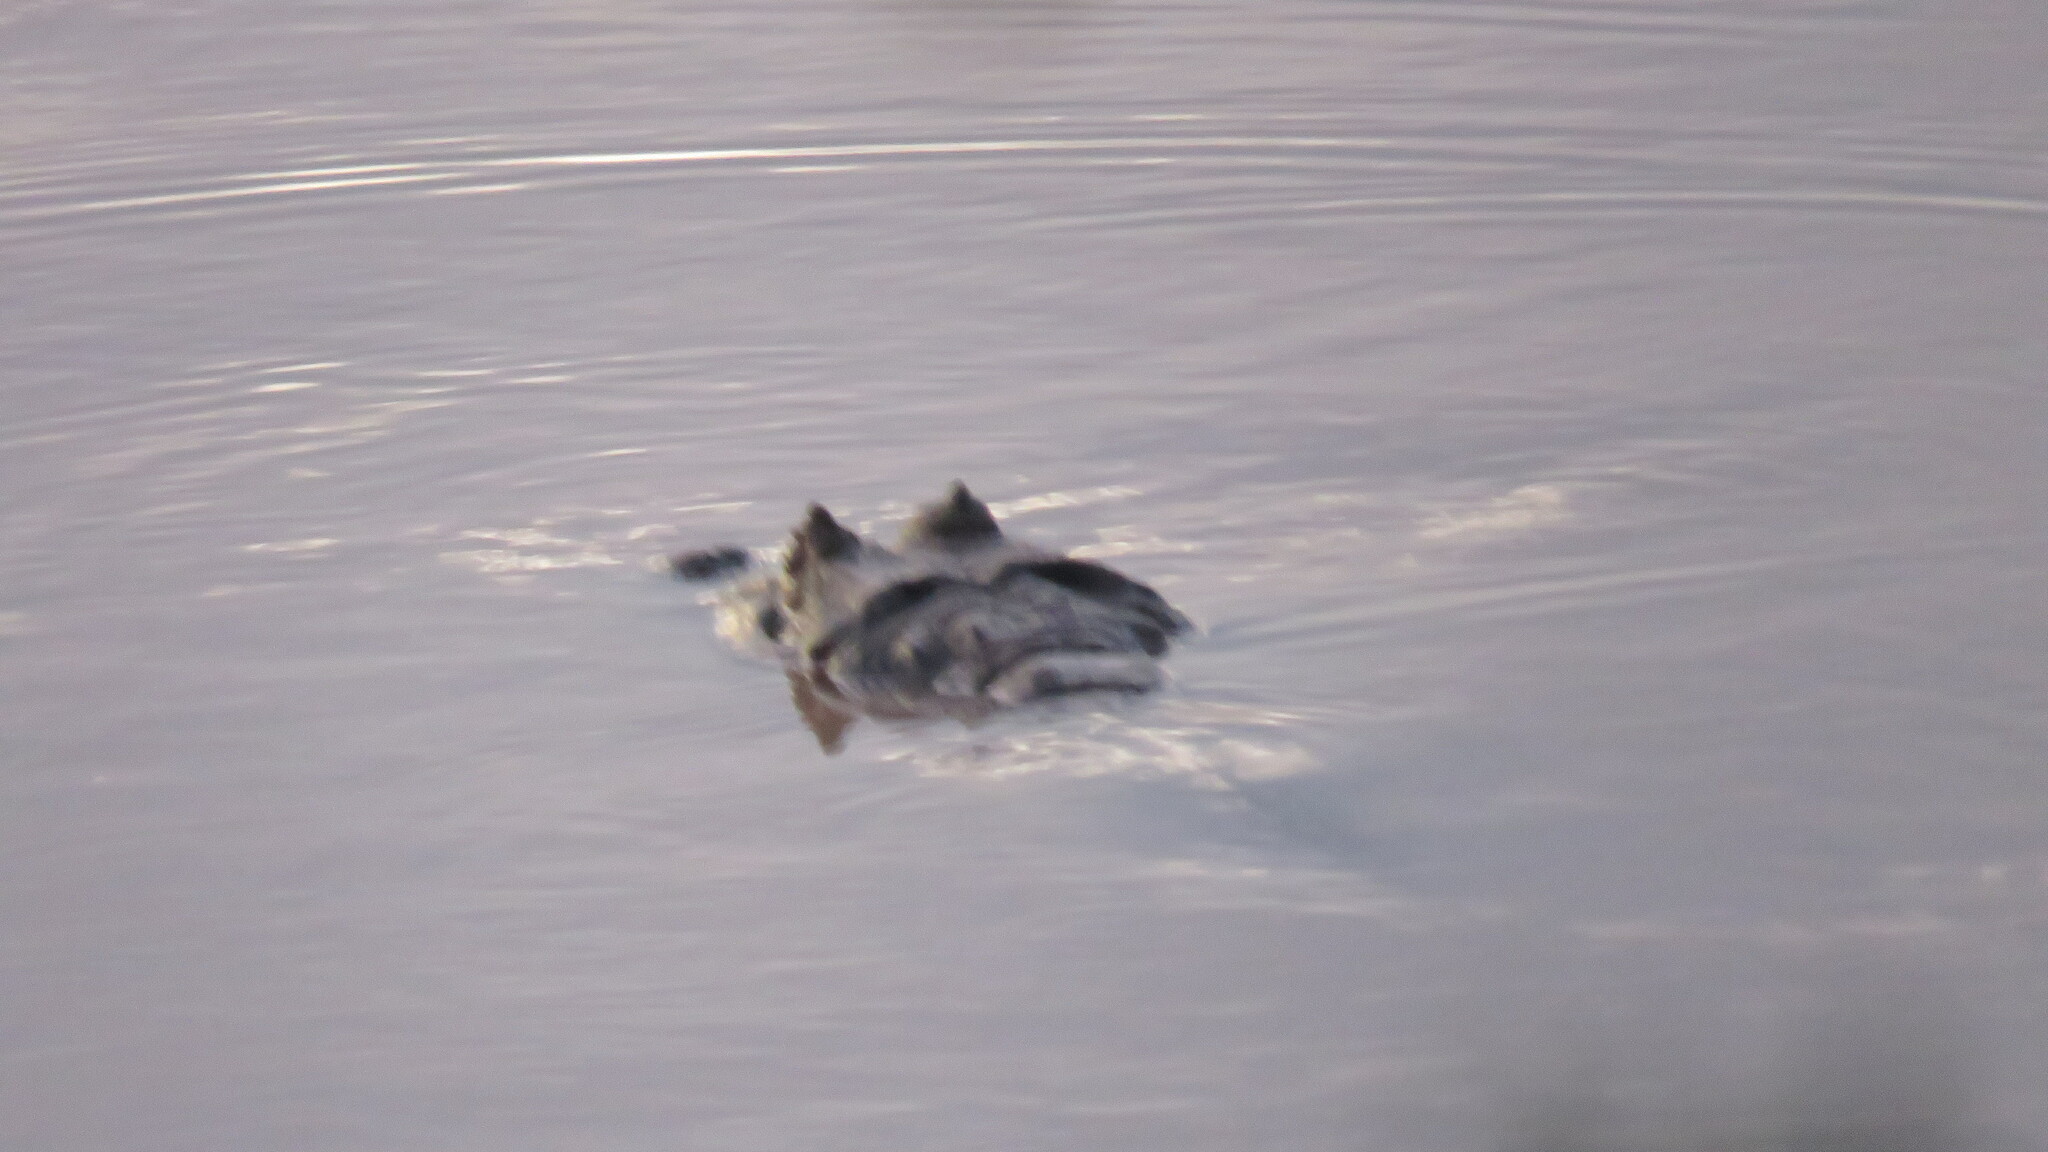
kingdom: Animalia
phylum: Chordata
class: Crocodylia
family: Alligatoridae
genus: Caiman
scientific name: Caiman latirostris
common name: Broad-snouted caiman
